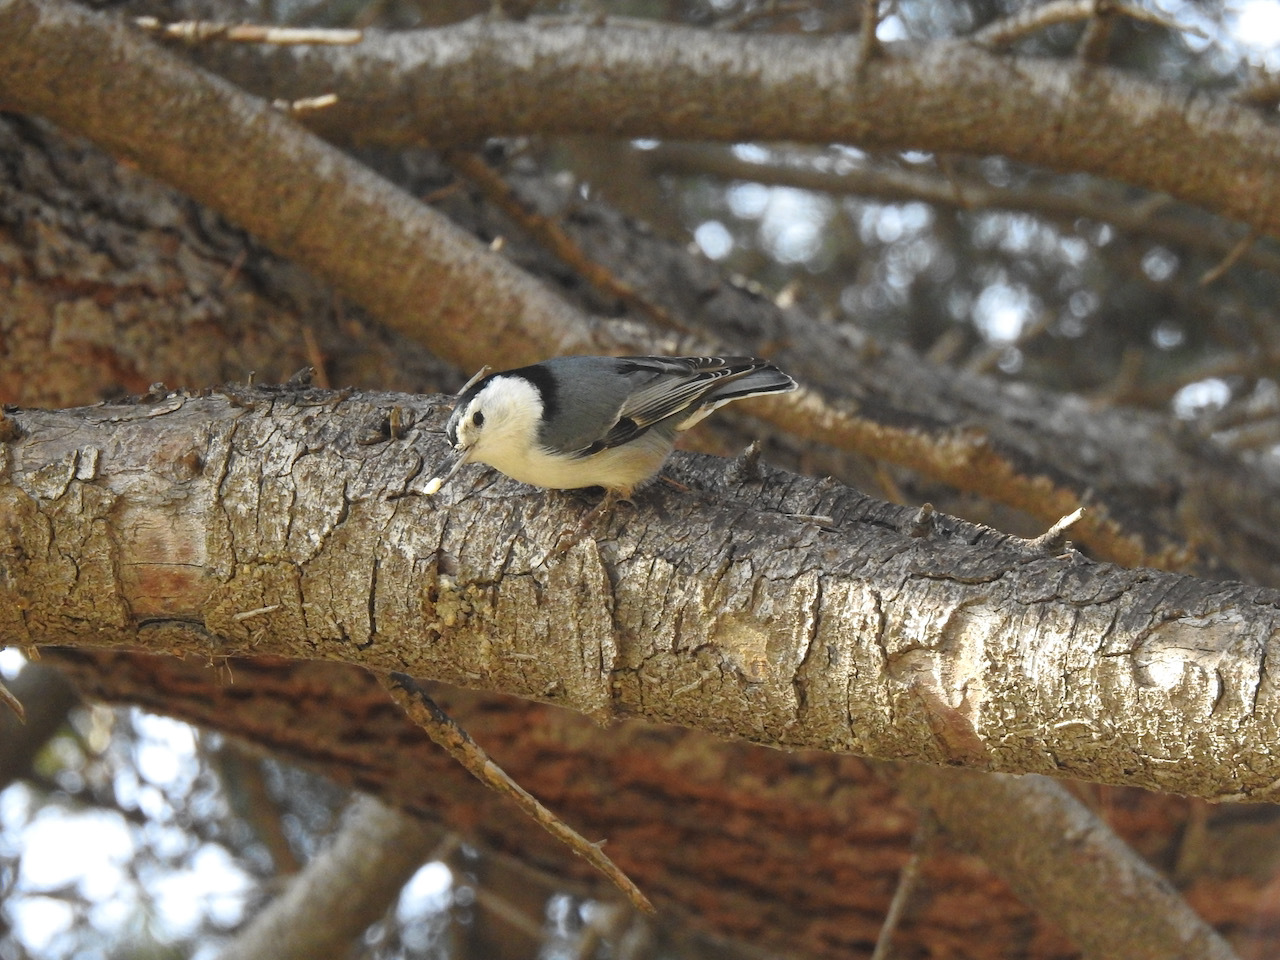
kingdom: Animalia
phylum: Chordata
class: Aves
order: Passeriformes
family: Sittidae
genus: Sitta
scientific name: Sitta carolinensis
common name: White-breasted nuthatch
